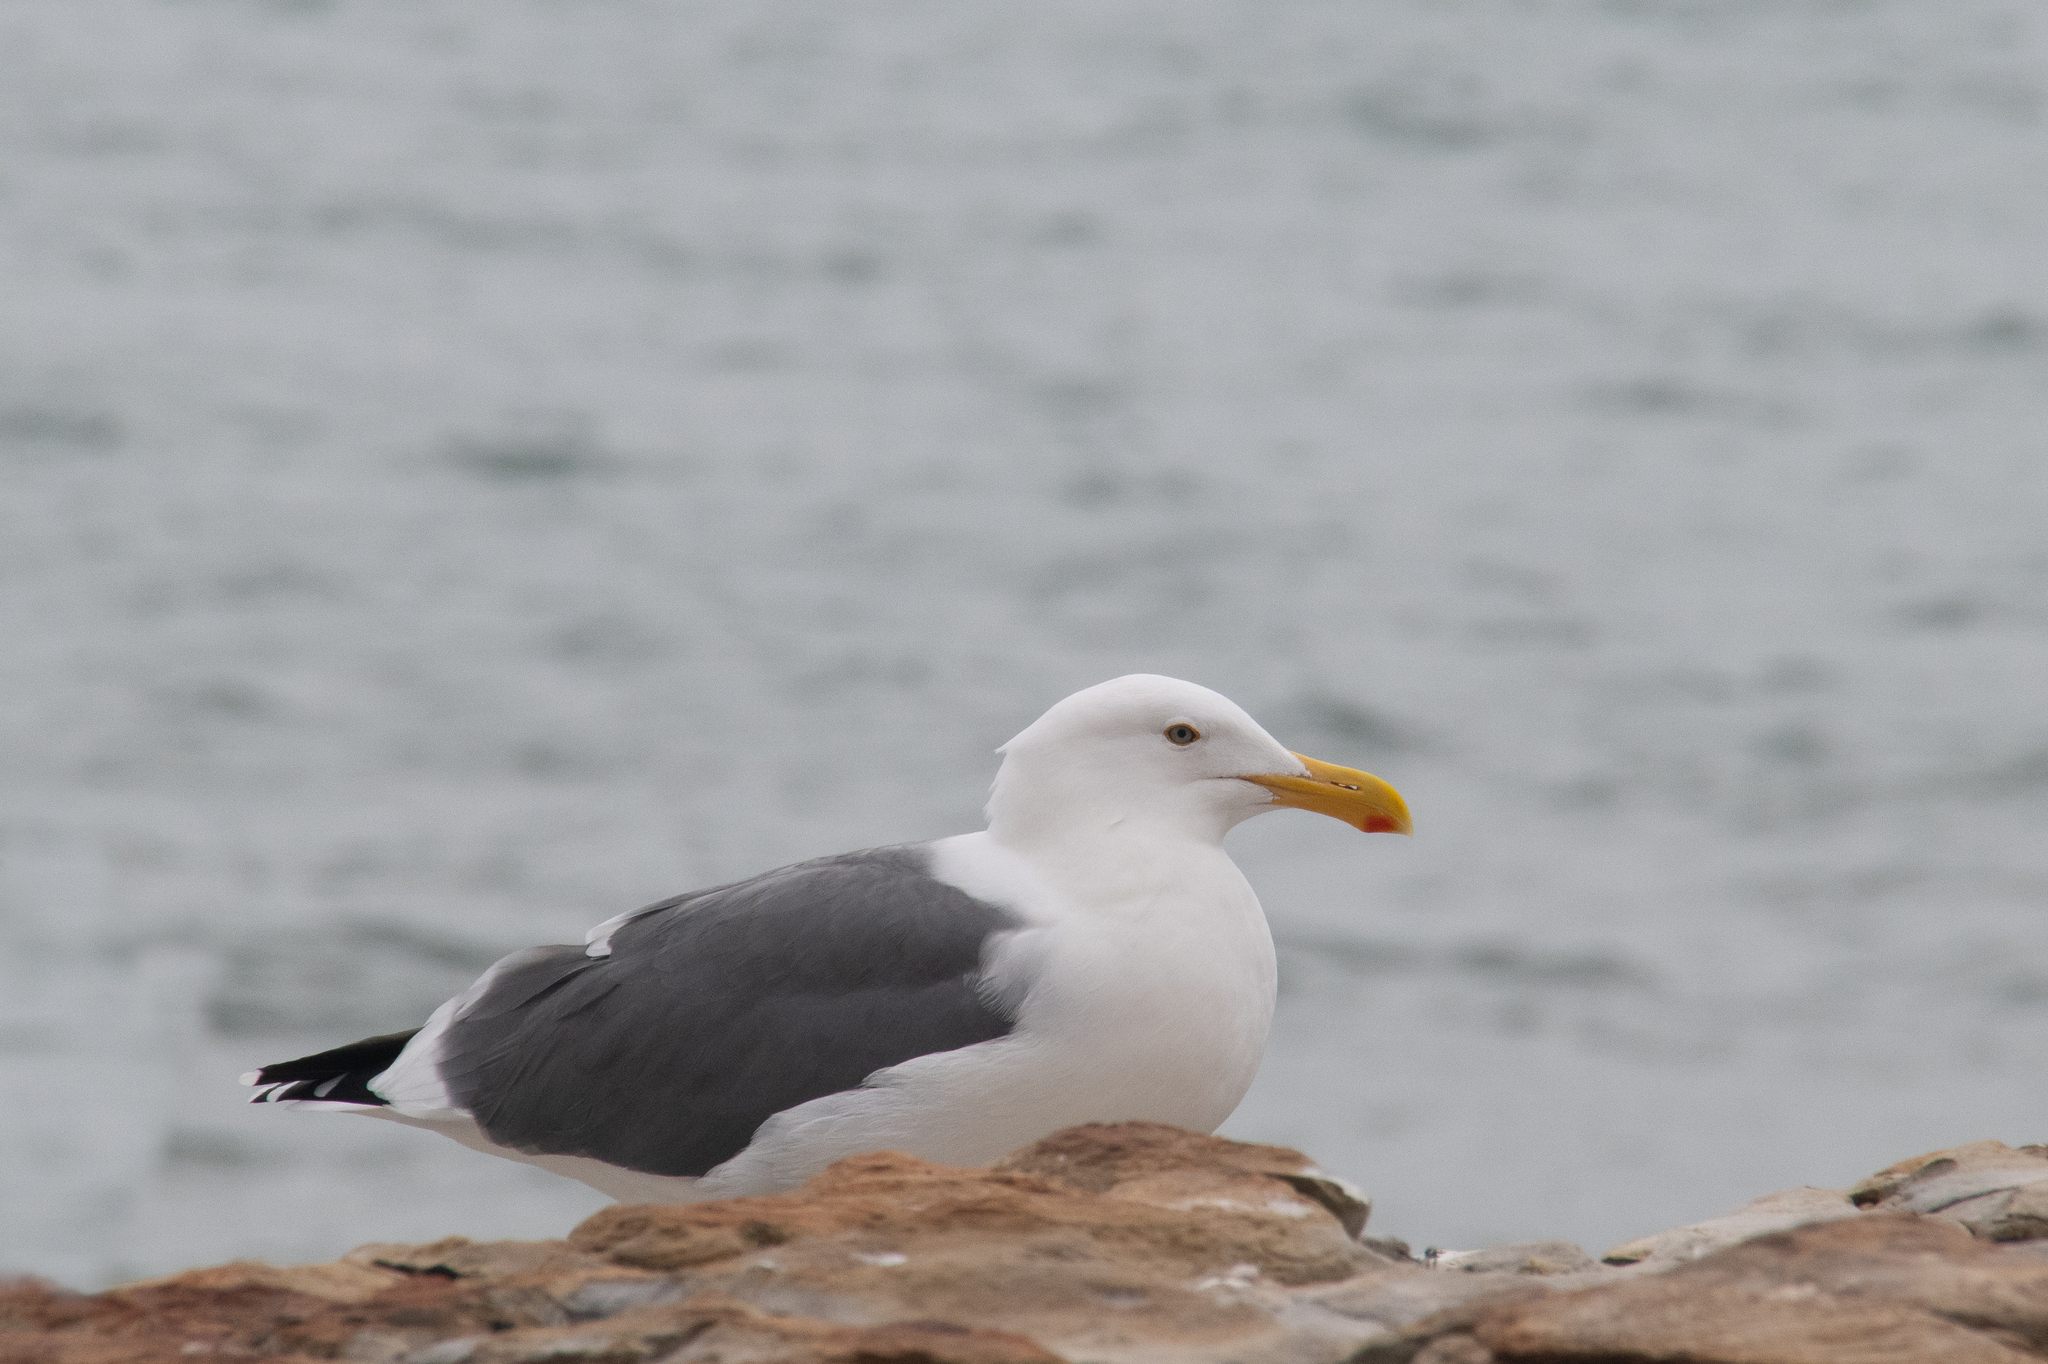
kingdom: Animalia
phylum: Chordata
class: Aves
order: Charadriiformes
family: Laridae
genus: Larus
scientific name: Larus occidentalis
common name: Western gull
